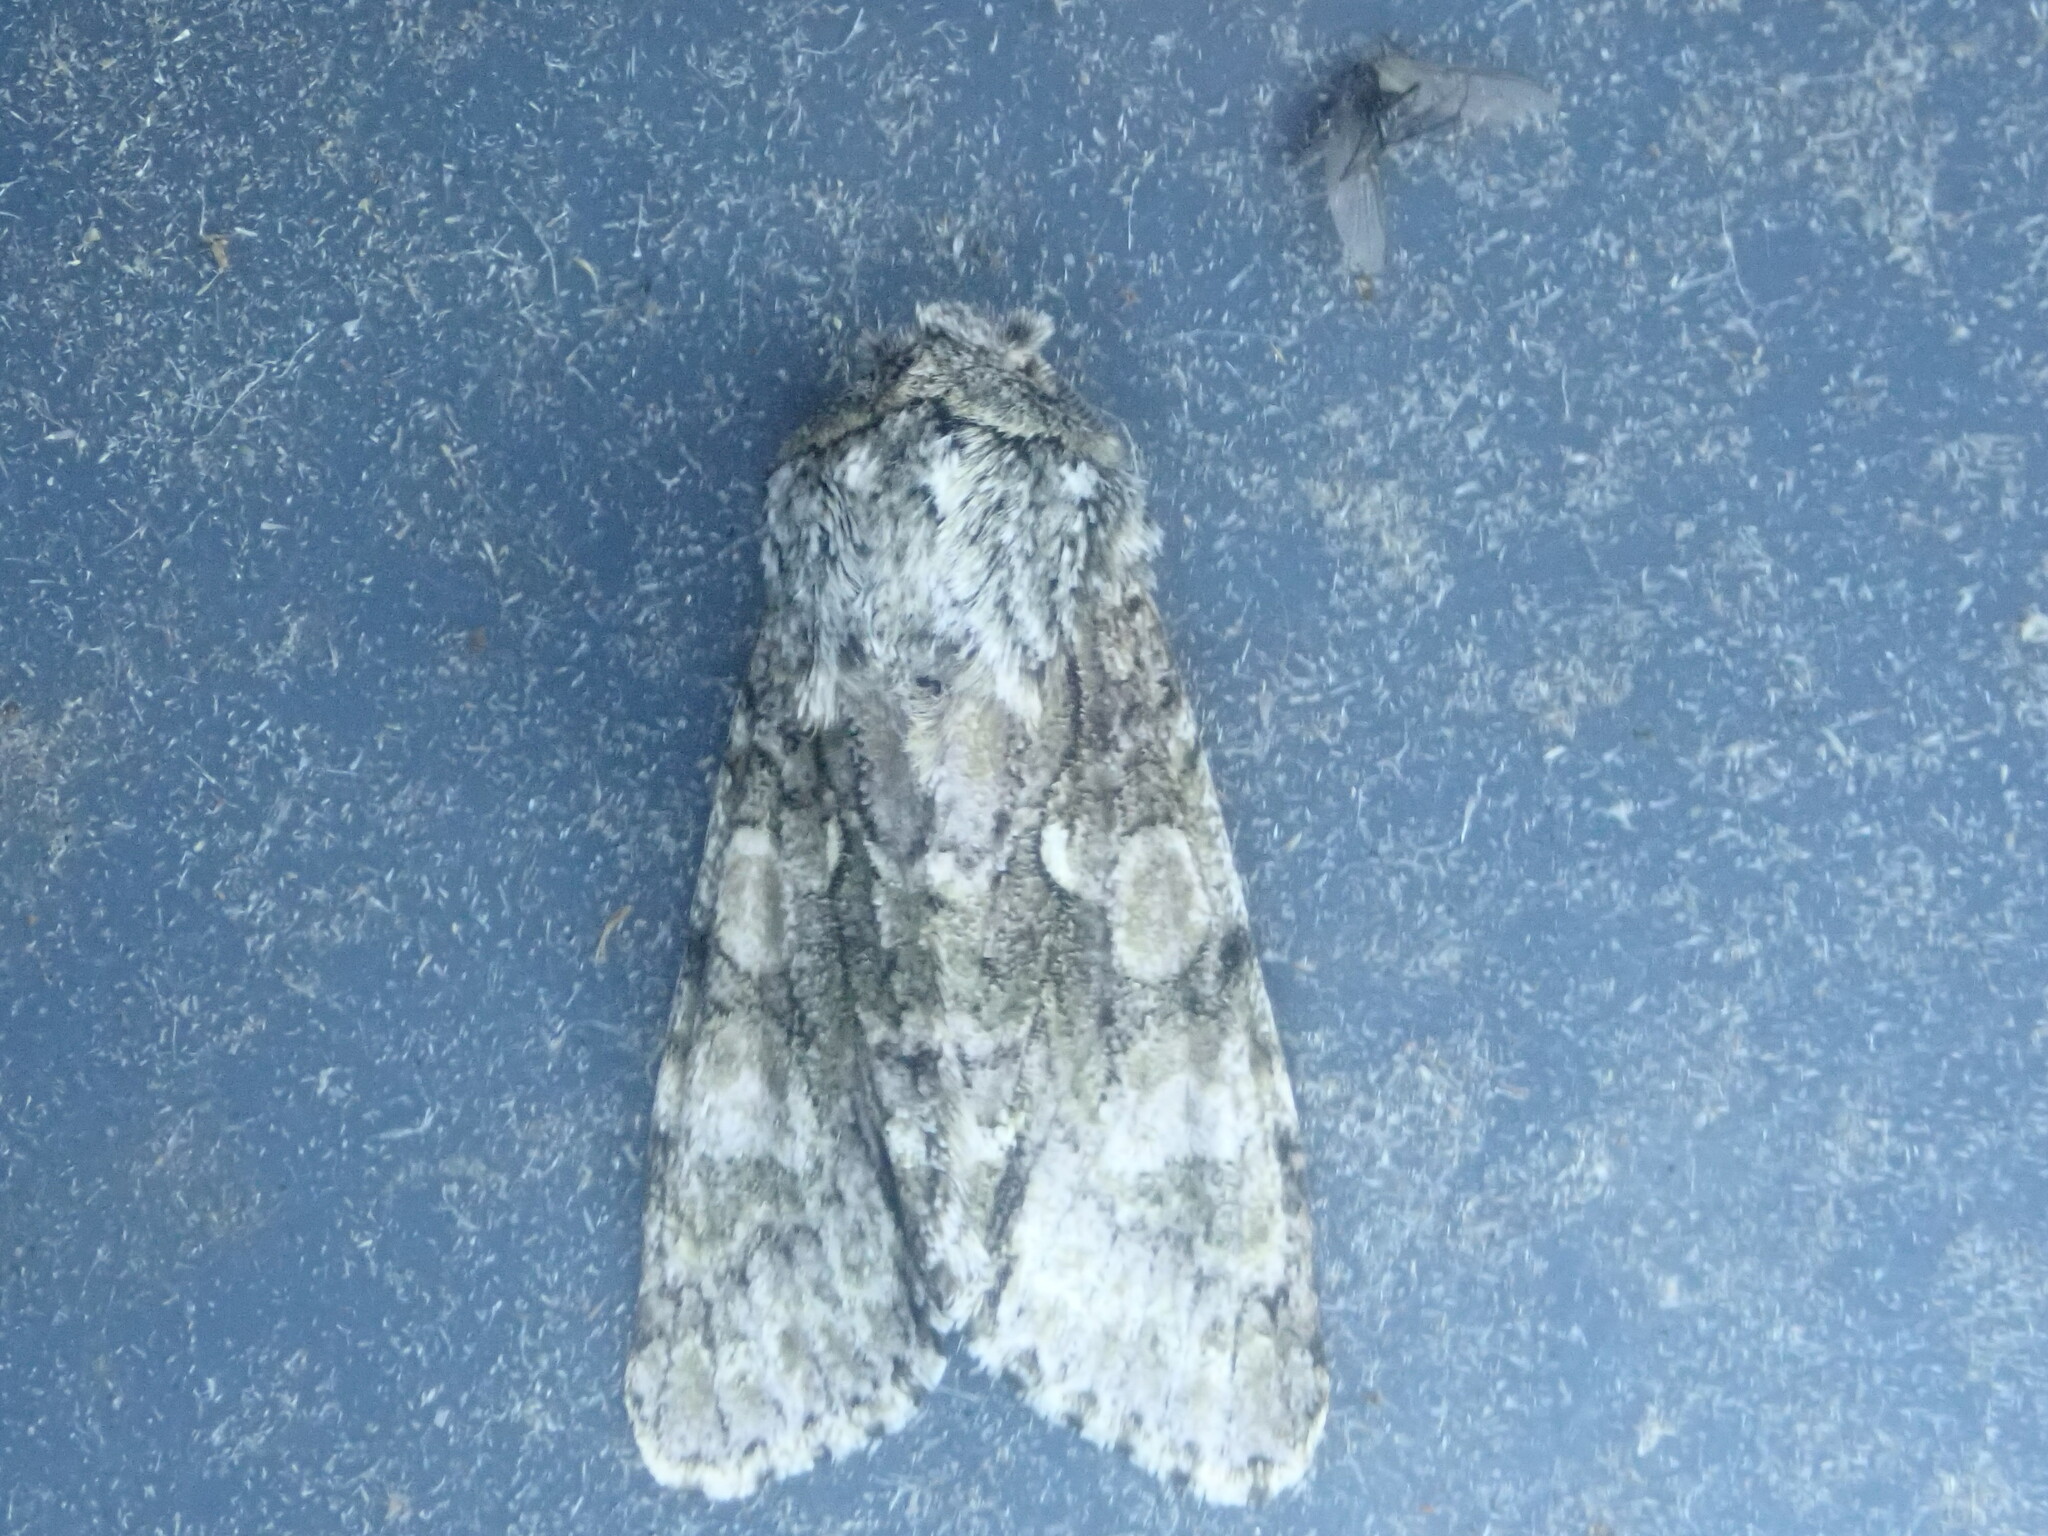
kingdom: Animalia
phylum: Arthropoda
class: Insecta
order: Lepidoptera
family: Noctuidae
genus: Psaphida
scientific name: Psaphida resumens
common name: Figure-eight sallow
